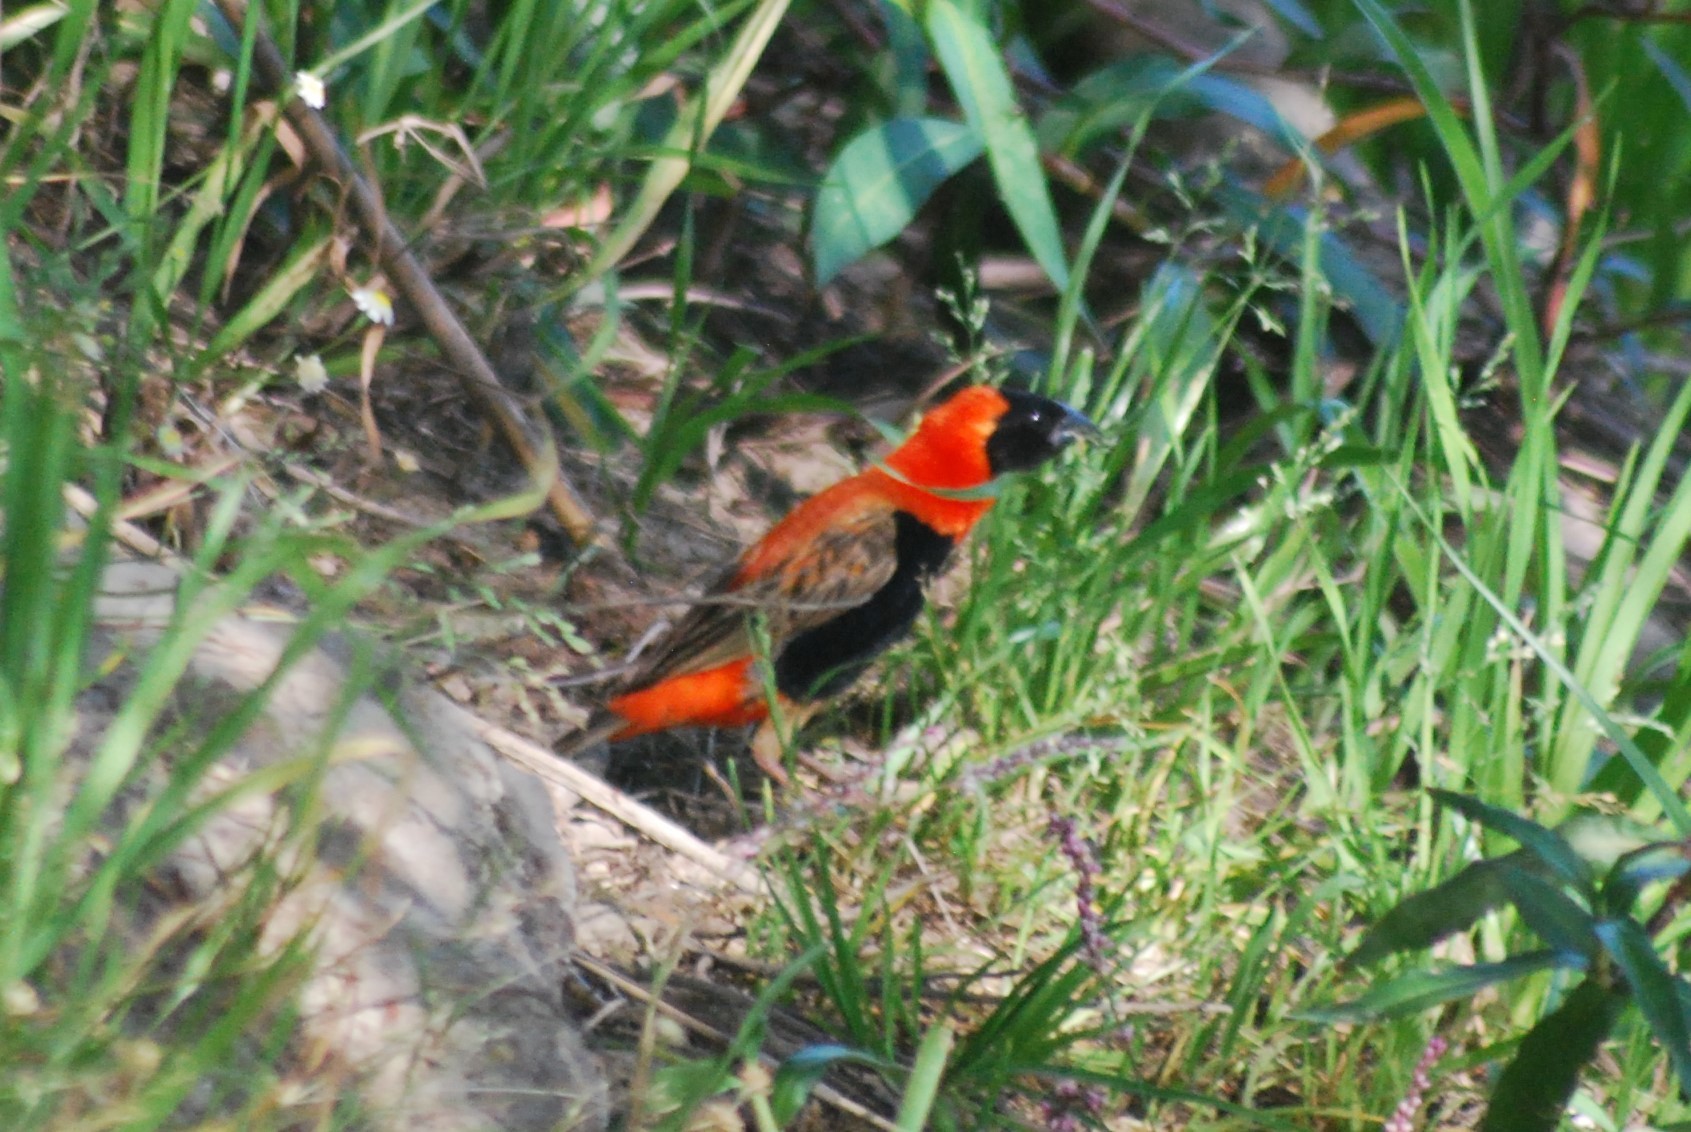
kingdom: Animalia
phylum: Chordata
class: Aves
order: Passeriformes
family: Ploceidae
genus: Euplectes
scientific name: Euplectes orix
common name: Southern red bishop
